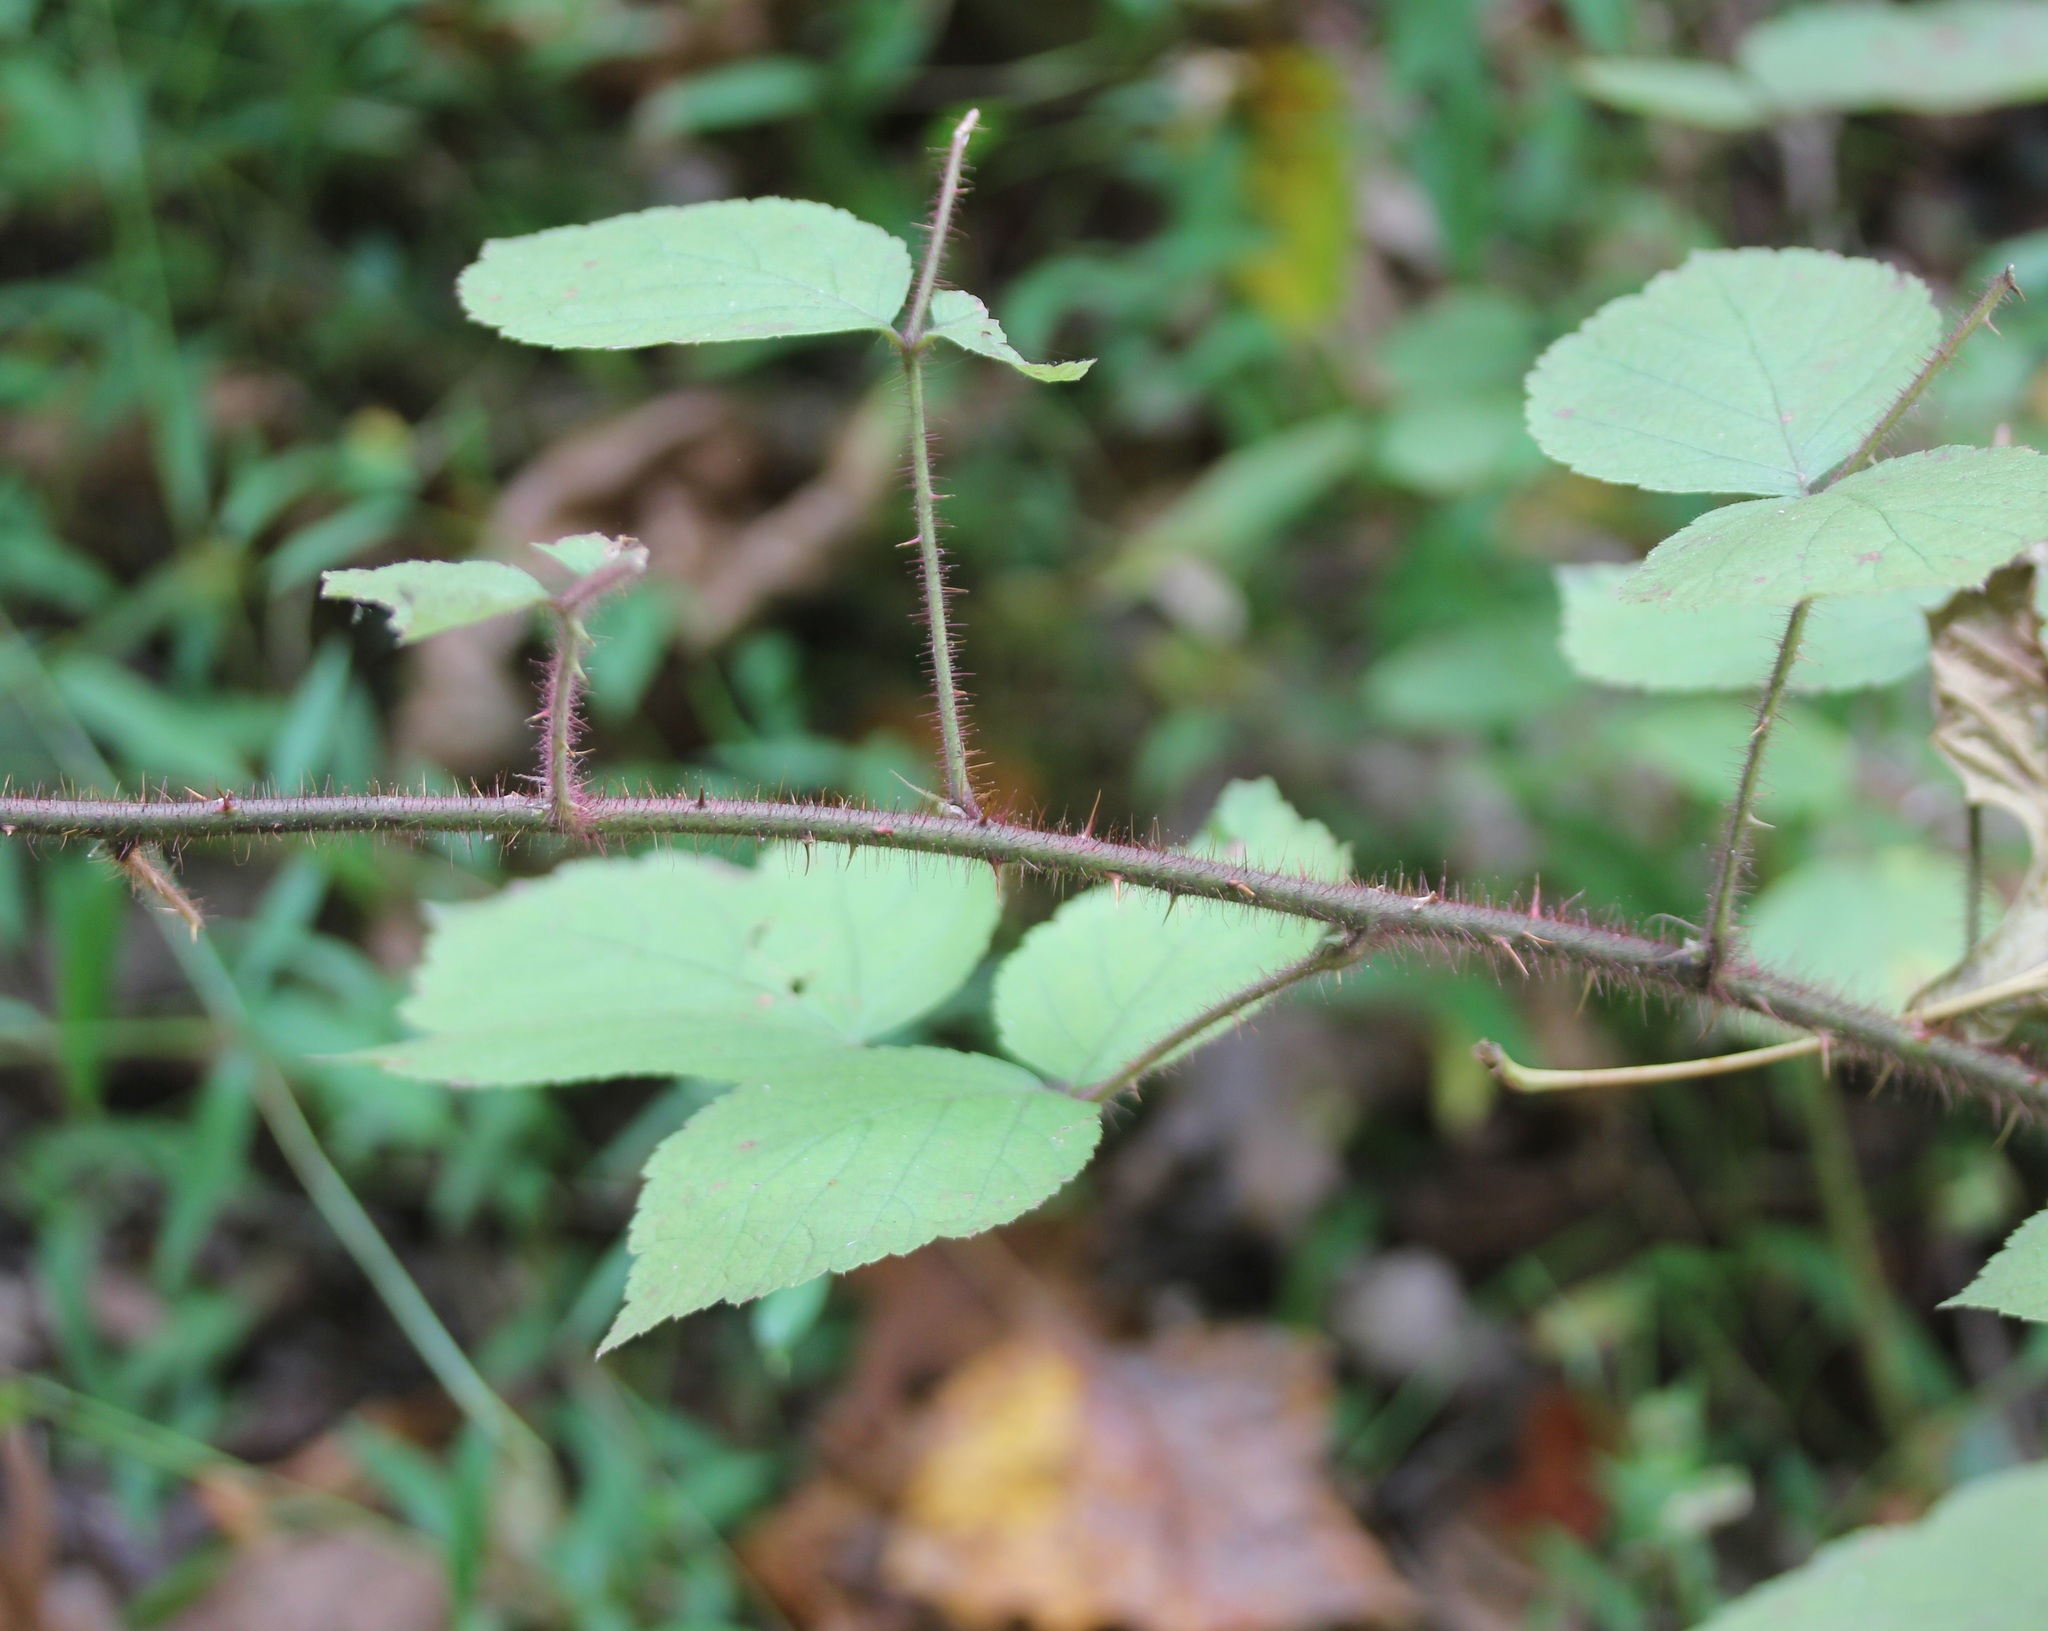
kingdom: Plantae
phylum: Tracheophyta
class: Magnoliopsida
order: Rosales
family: Rosaceae
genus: Rubus
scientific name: Rubus phoenicolasius
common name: Japanese wineberry
